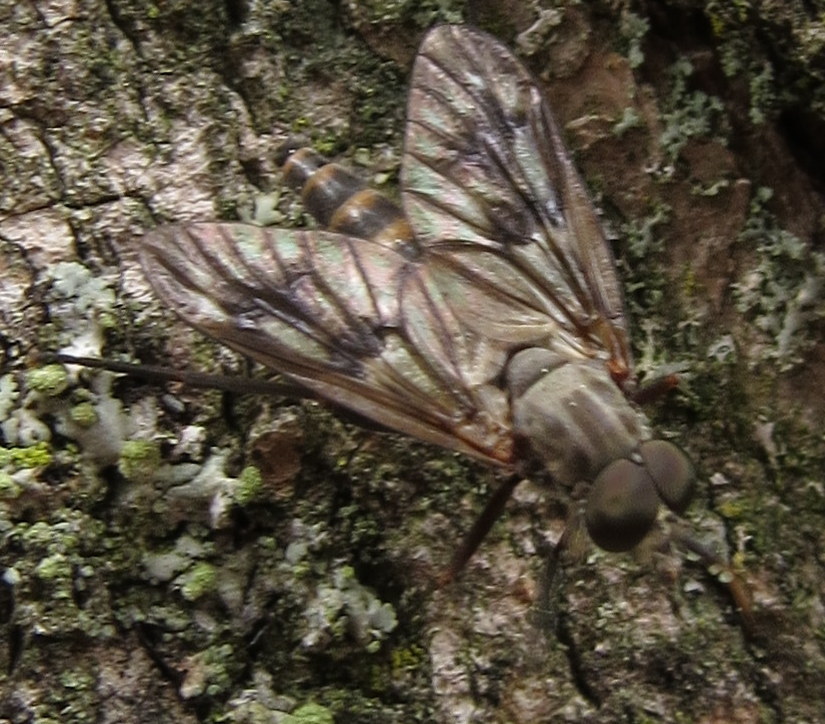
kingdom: Animalia
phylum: Arthropoda
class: Insecta
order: Diptera
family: Rhagionidae
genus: Rhagio
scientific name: Rhagio mystaceus
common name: Common snipe fly
